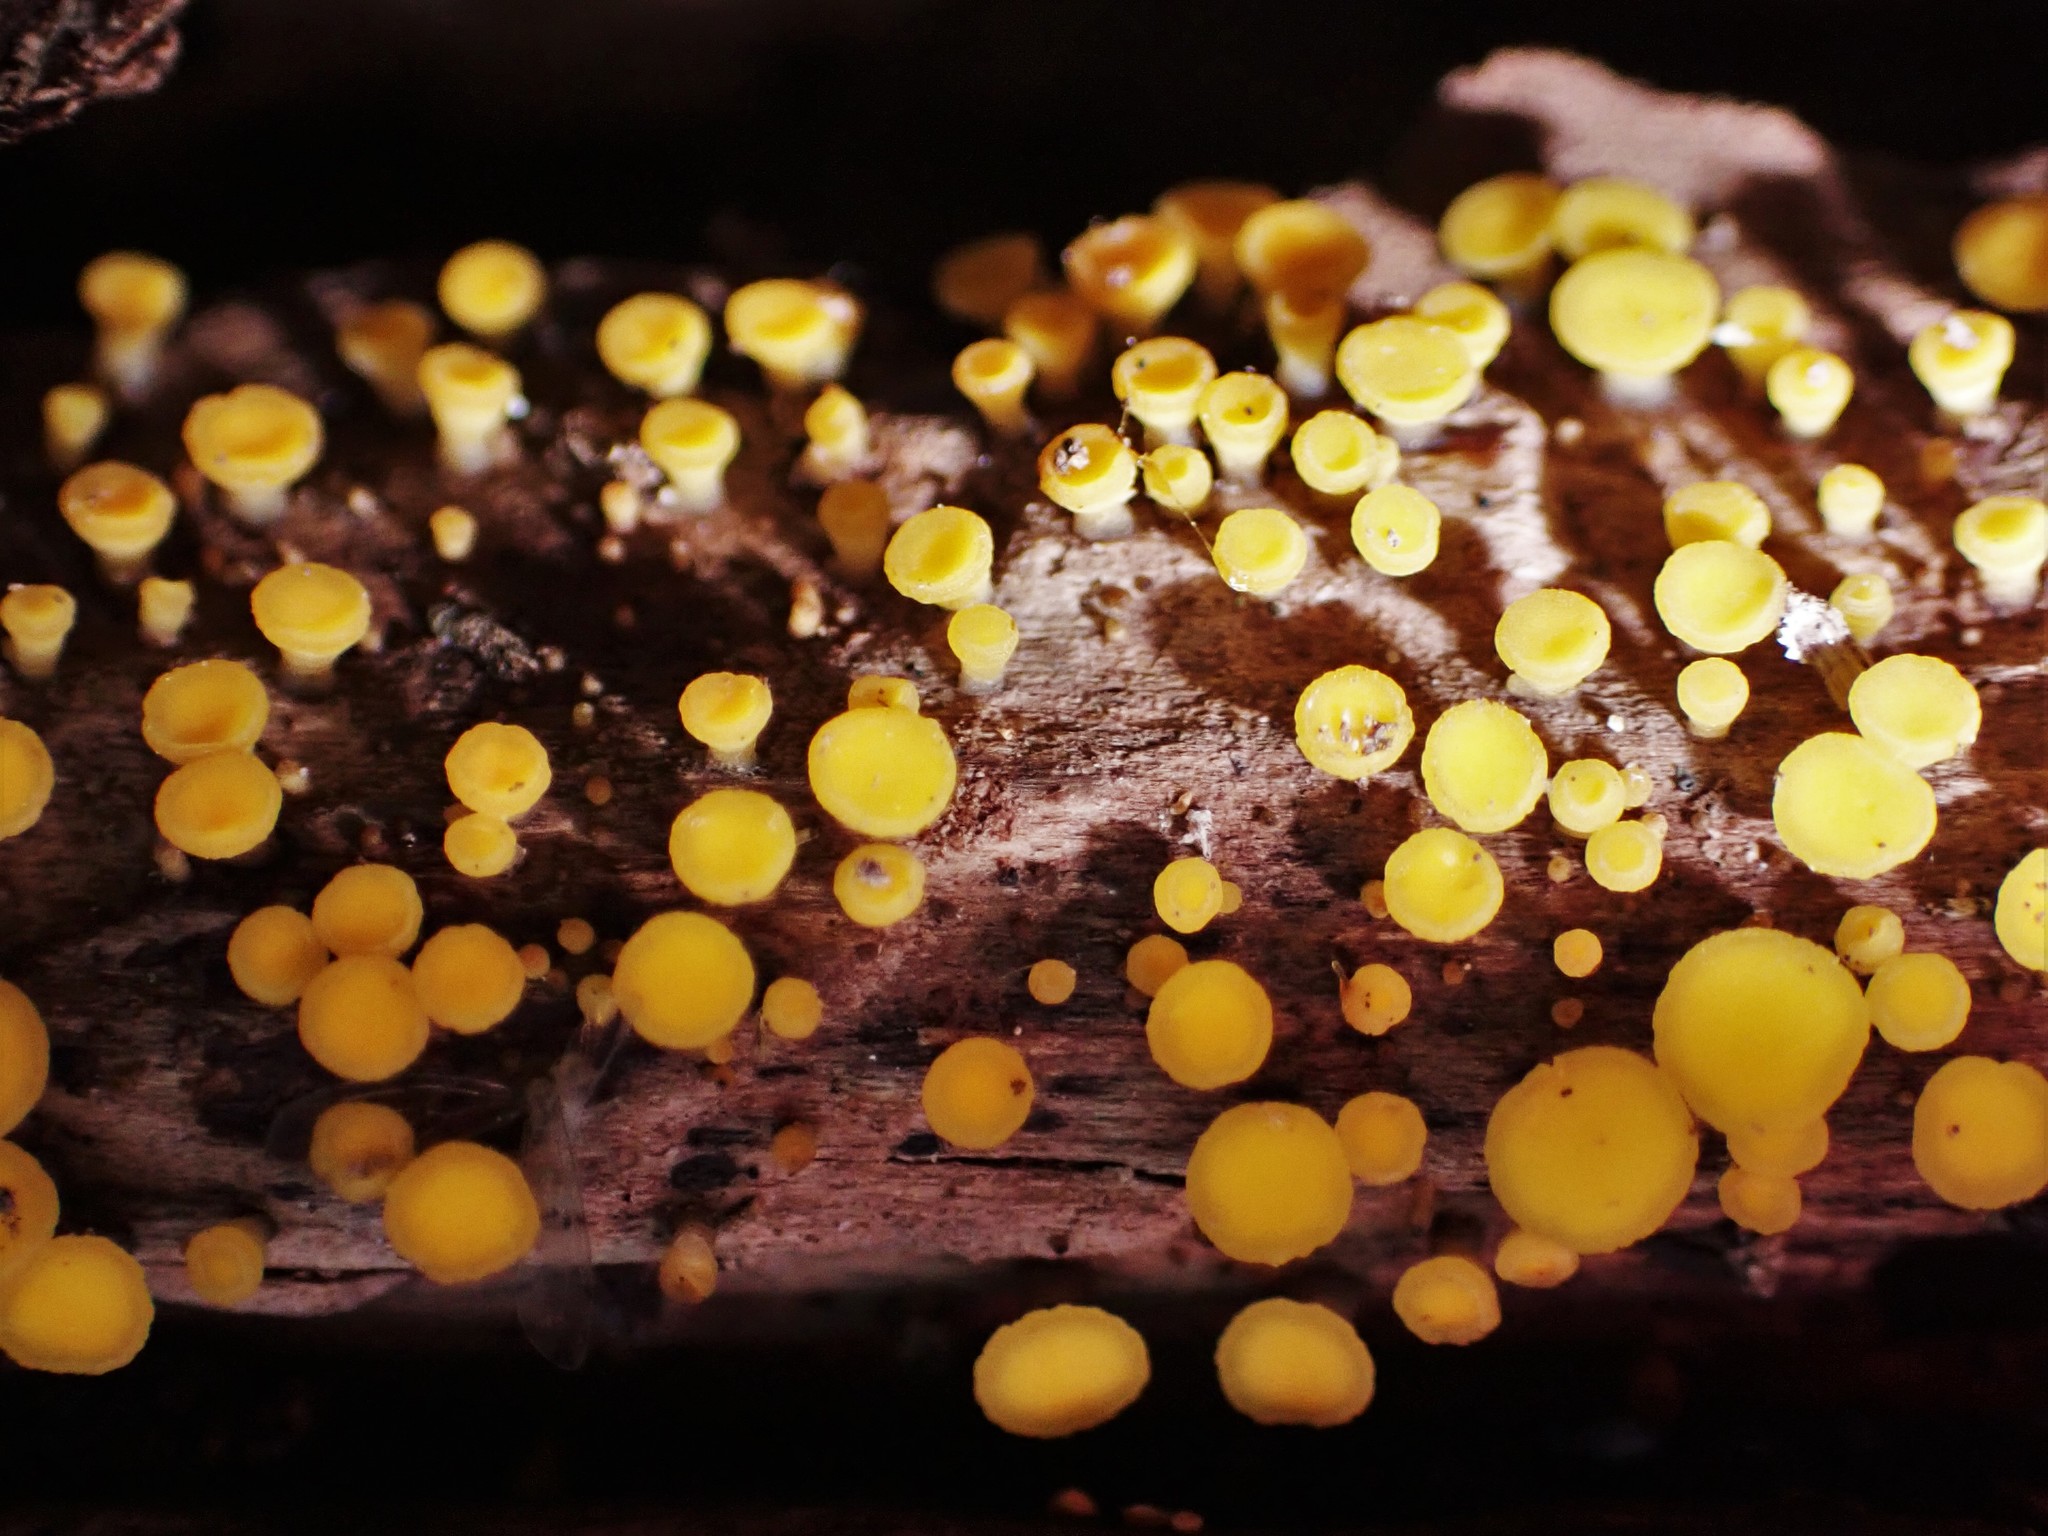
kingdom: Fungi
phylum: Ascomycota
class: Leotiomycetes
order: Helotiales
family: Pezizellaceae
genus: Calycina
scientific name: Calycina citrina
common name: Yellow fairy cups
